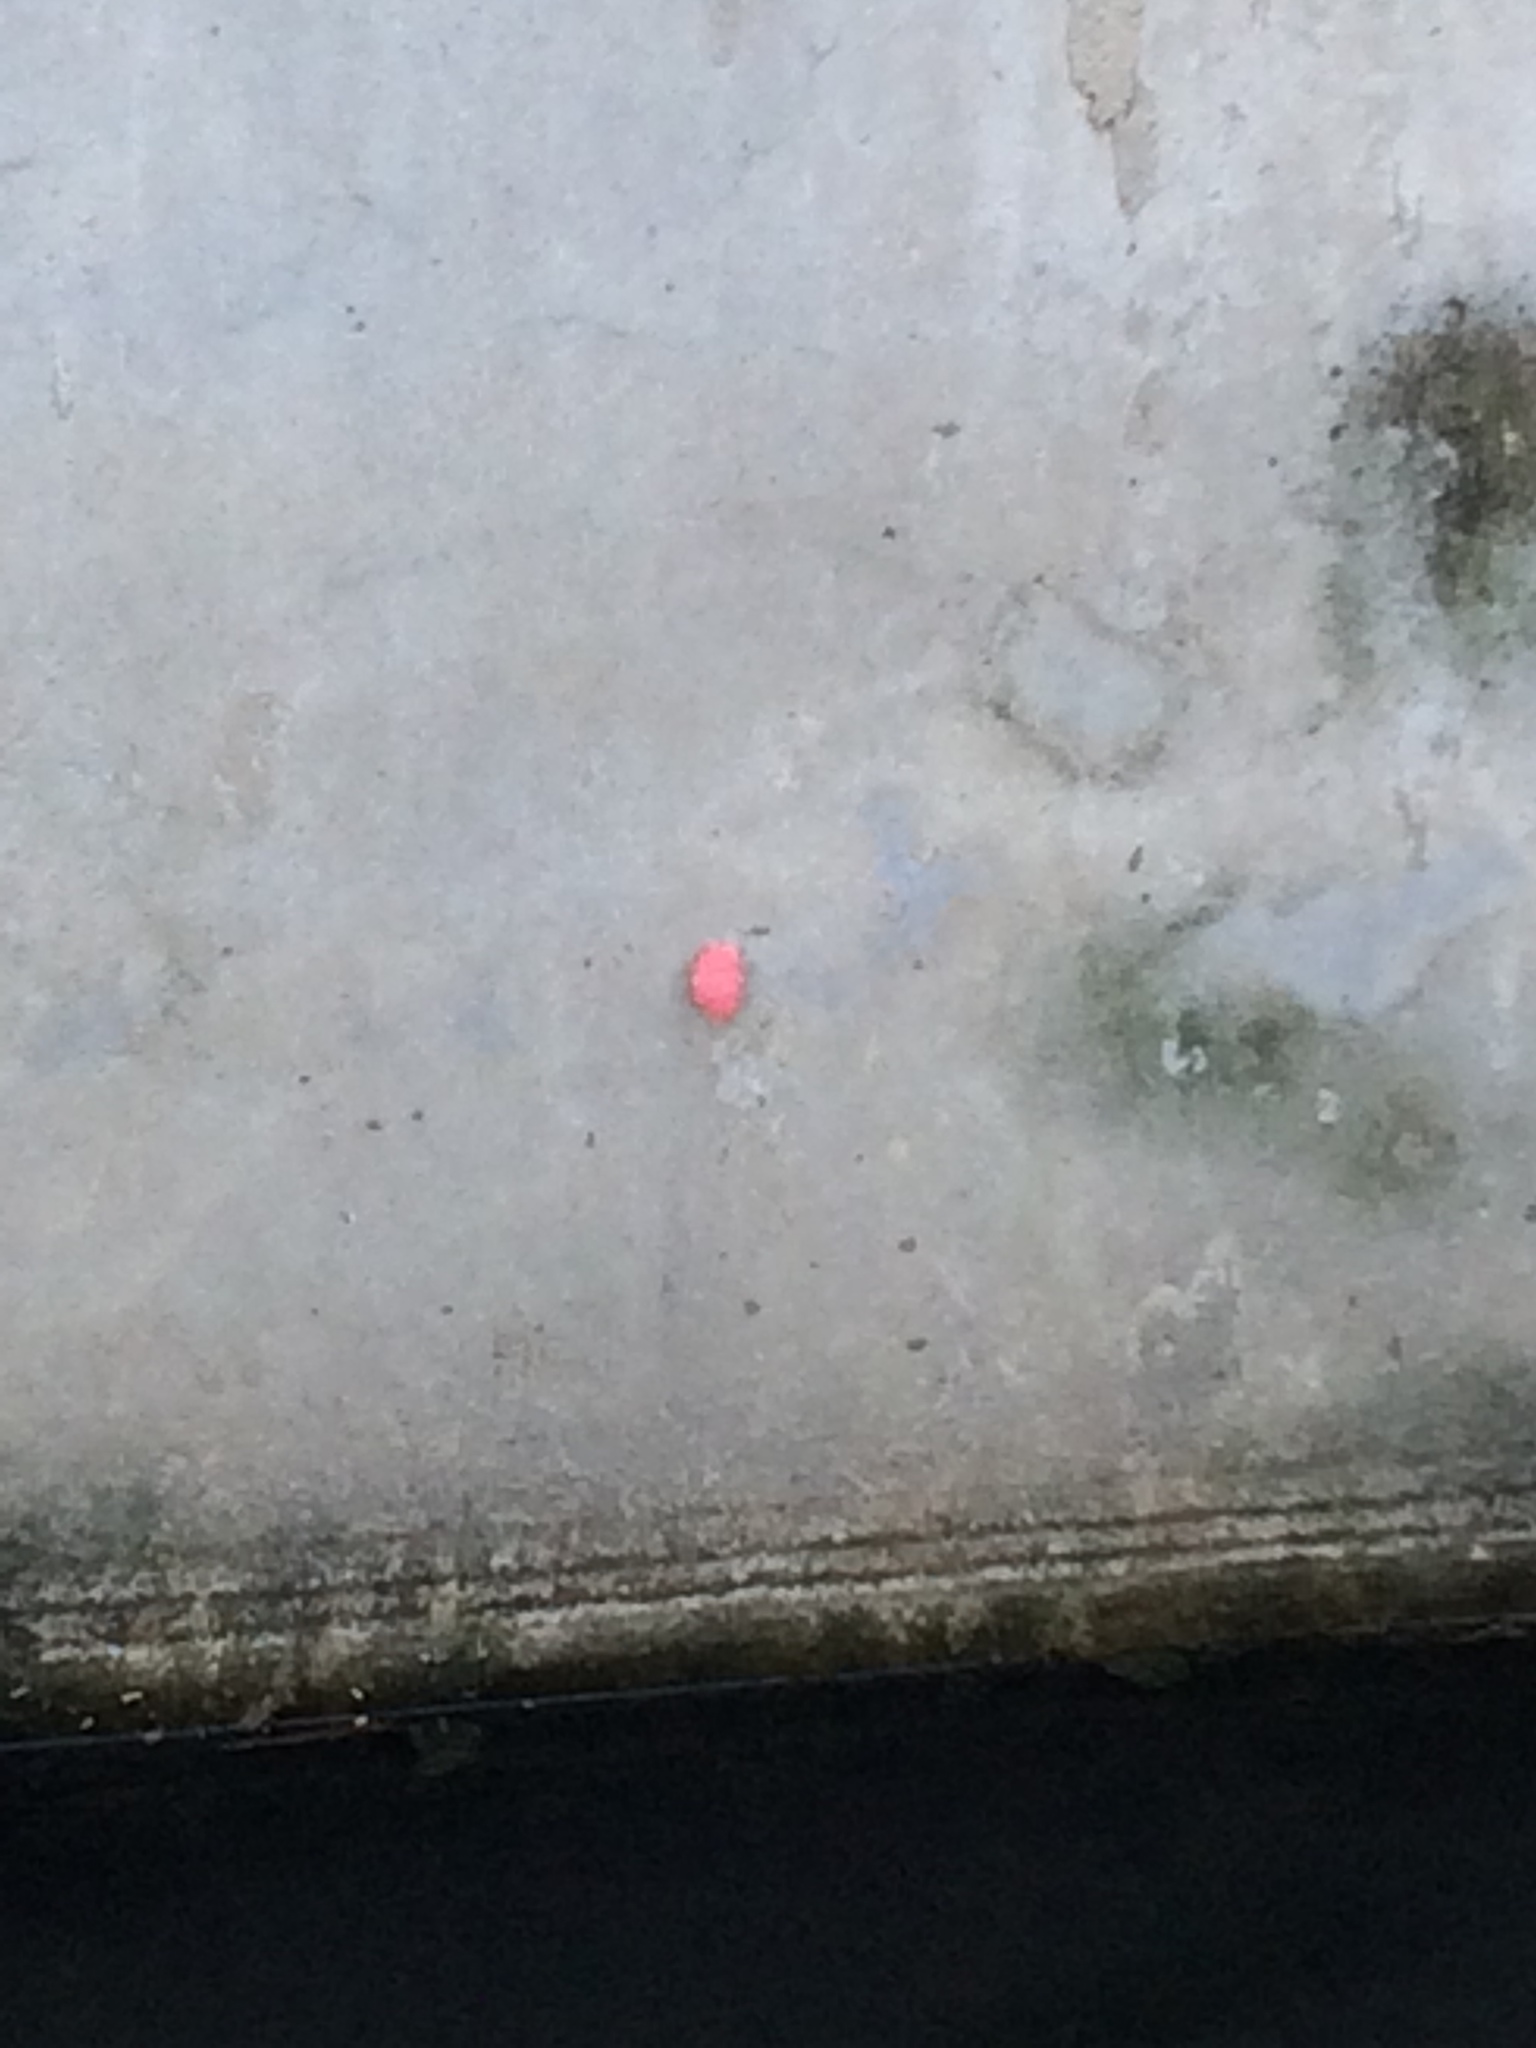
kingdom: Animalia
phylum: Mollusca
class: Gastropoda
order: Architaenioglossa
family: Ampullariidae
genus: Pomacea
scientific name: Pomacea canaliculata
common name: Channeled applesnail
